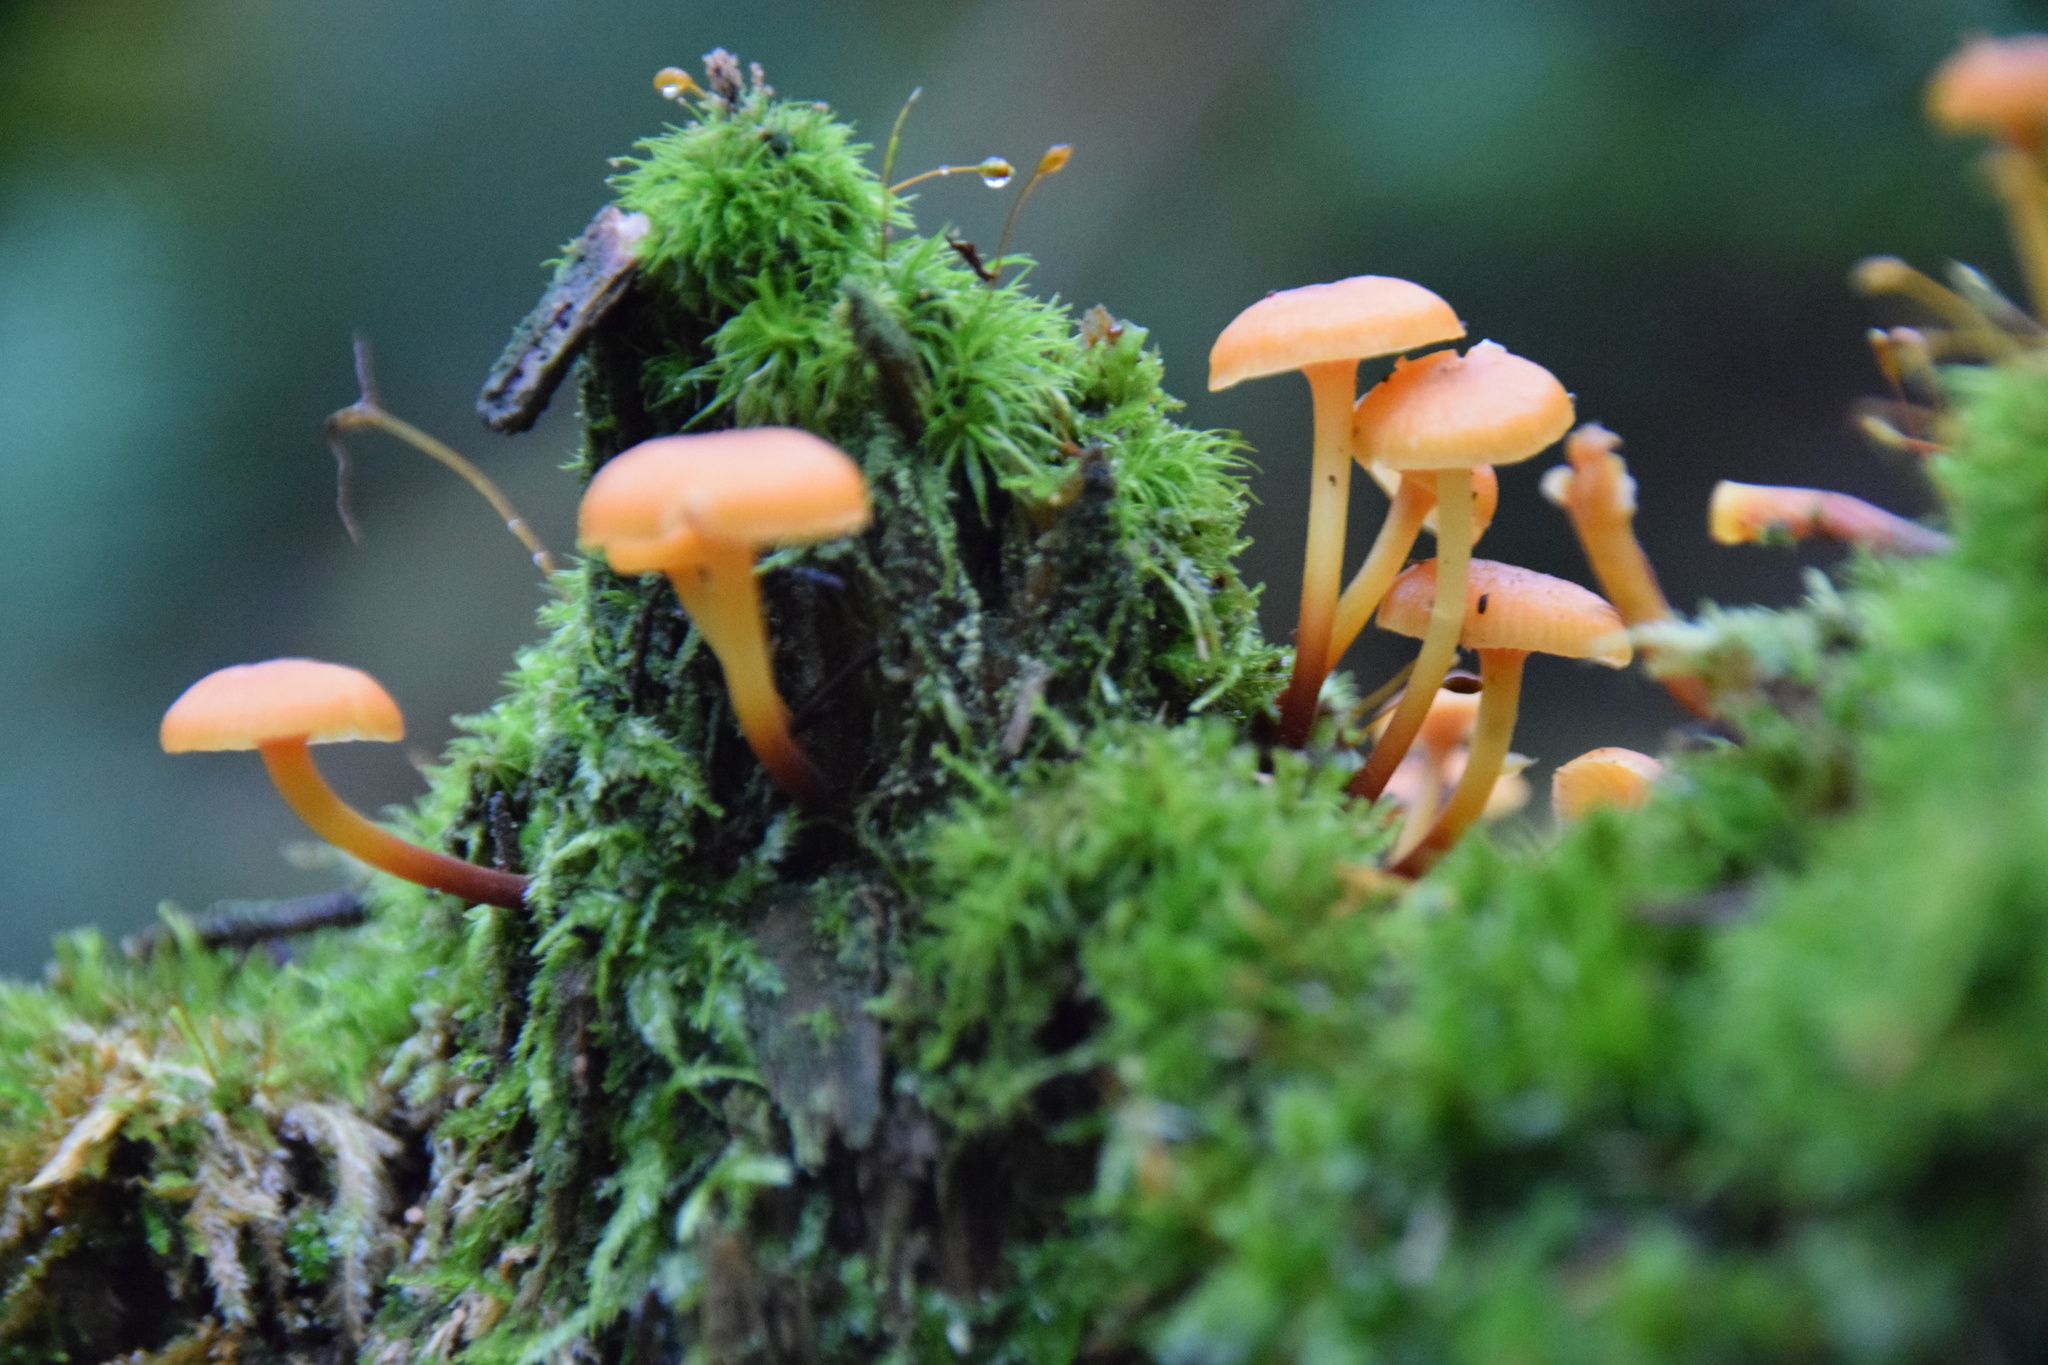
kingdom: Fungi
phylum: Basidiomycota
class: Agaricomycetes
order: Agaricales
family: Mycenaceae
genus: Xeromphalina
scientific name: Xeromphalina campanella
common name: Pinewood gingertail
